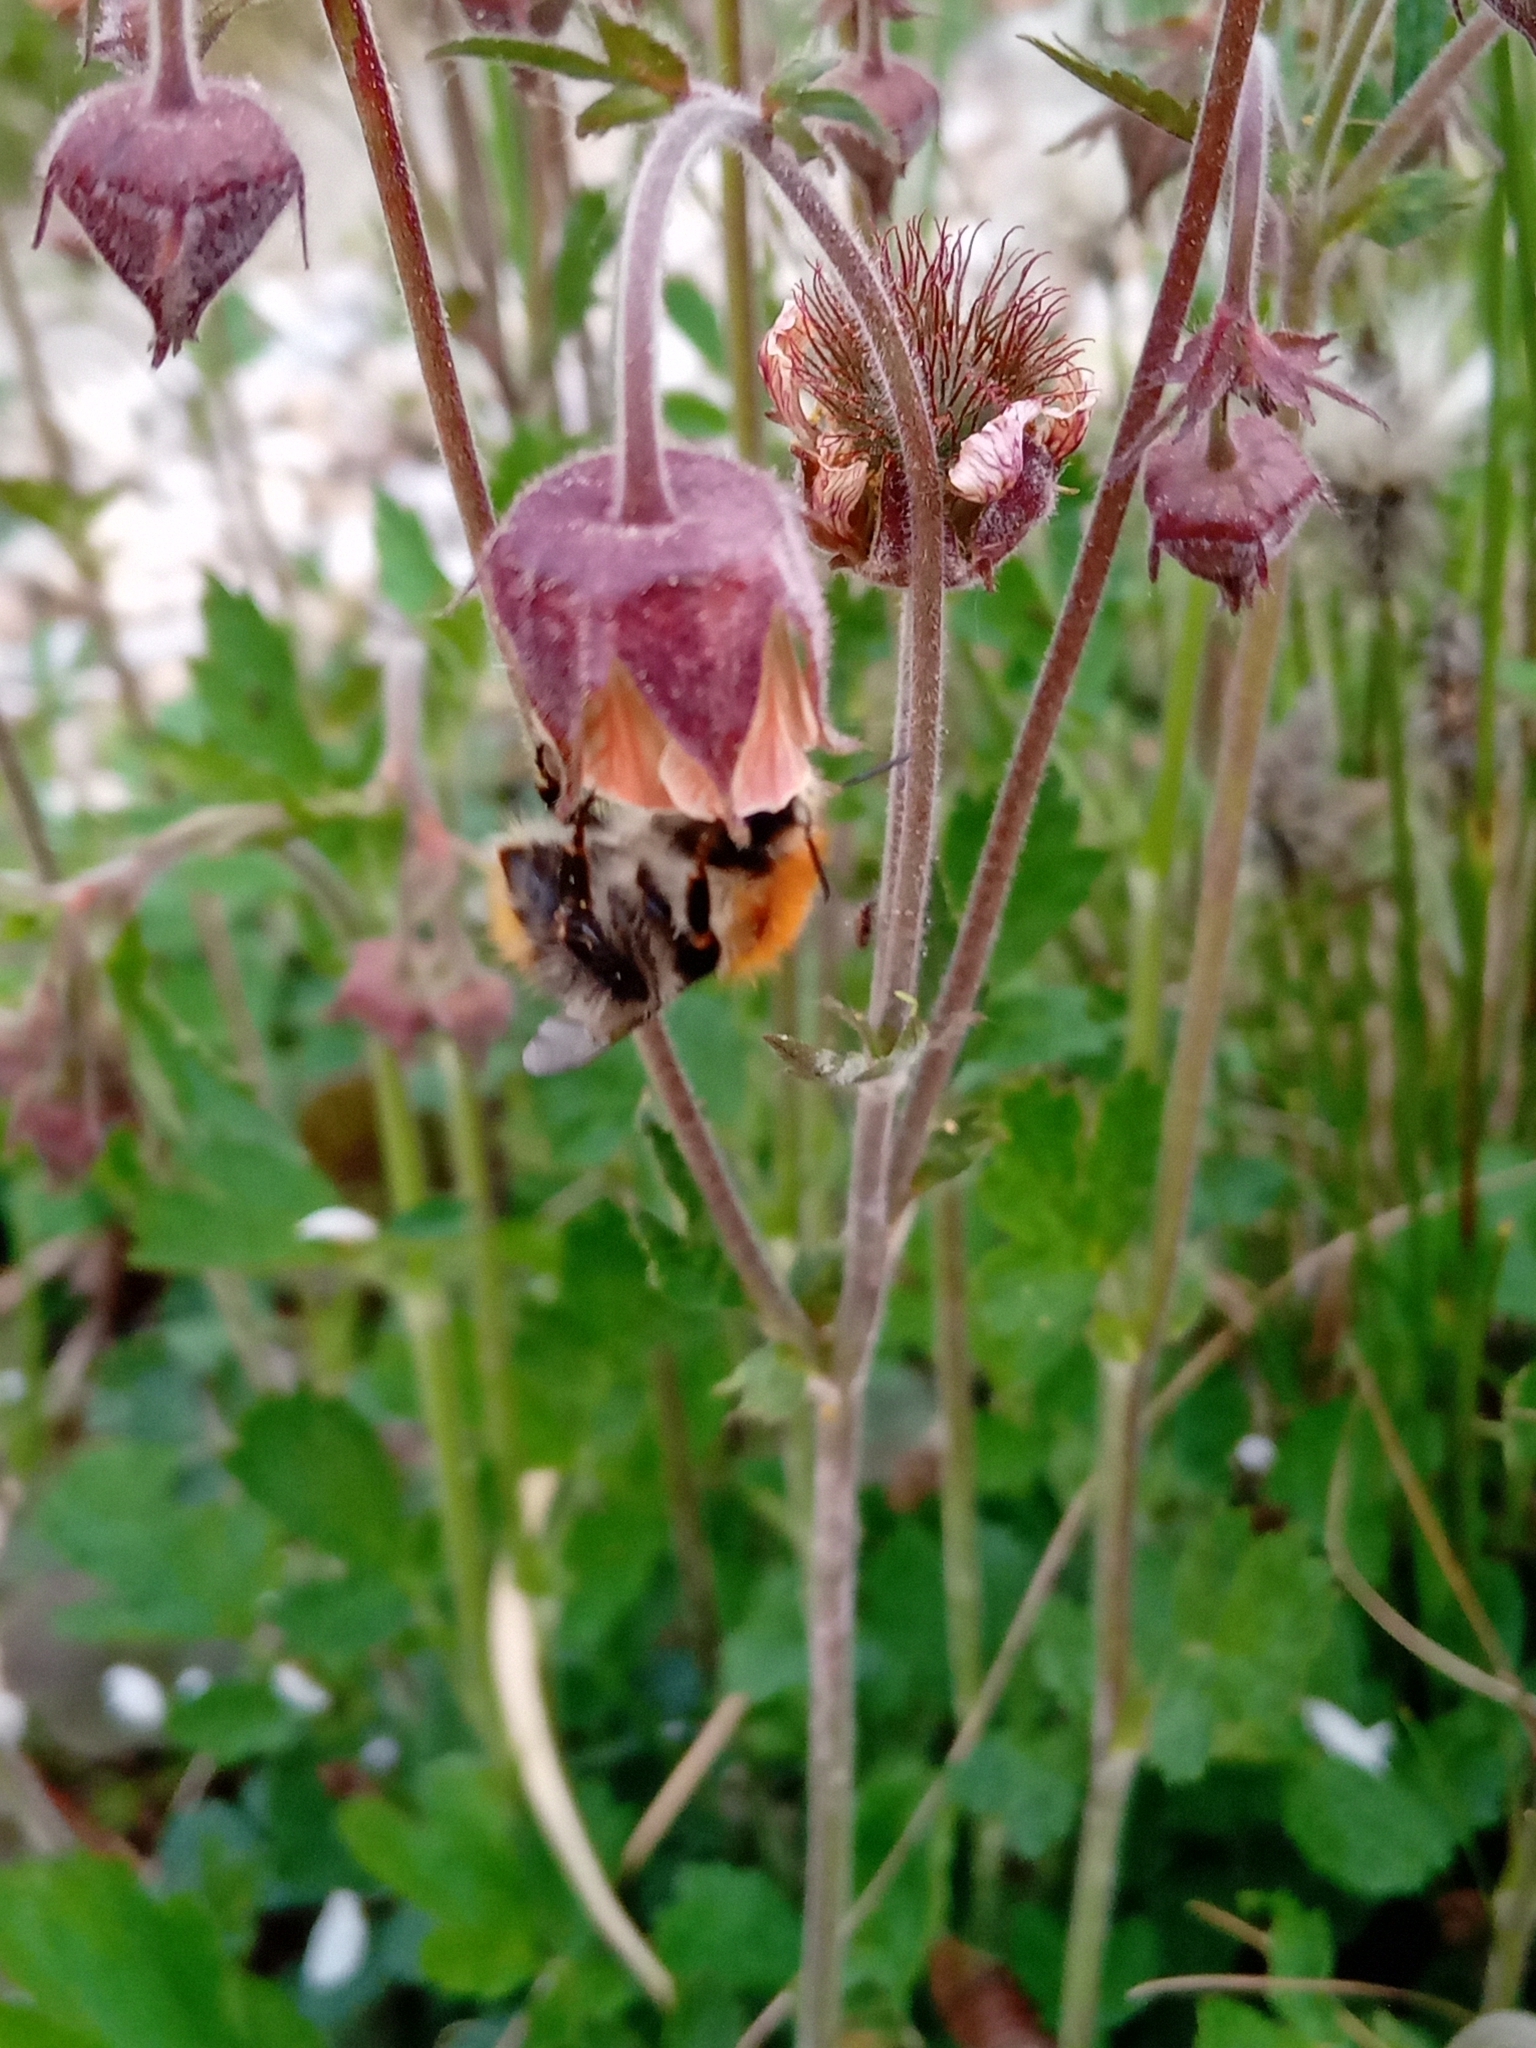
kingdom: Animalia
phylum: Arthropoda
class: Insecta
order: Hymenoptera
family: Apidae
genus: Bombus
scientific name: Bombus pascuorum
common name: Common carder bee
